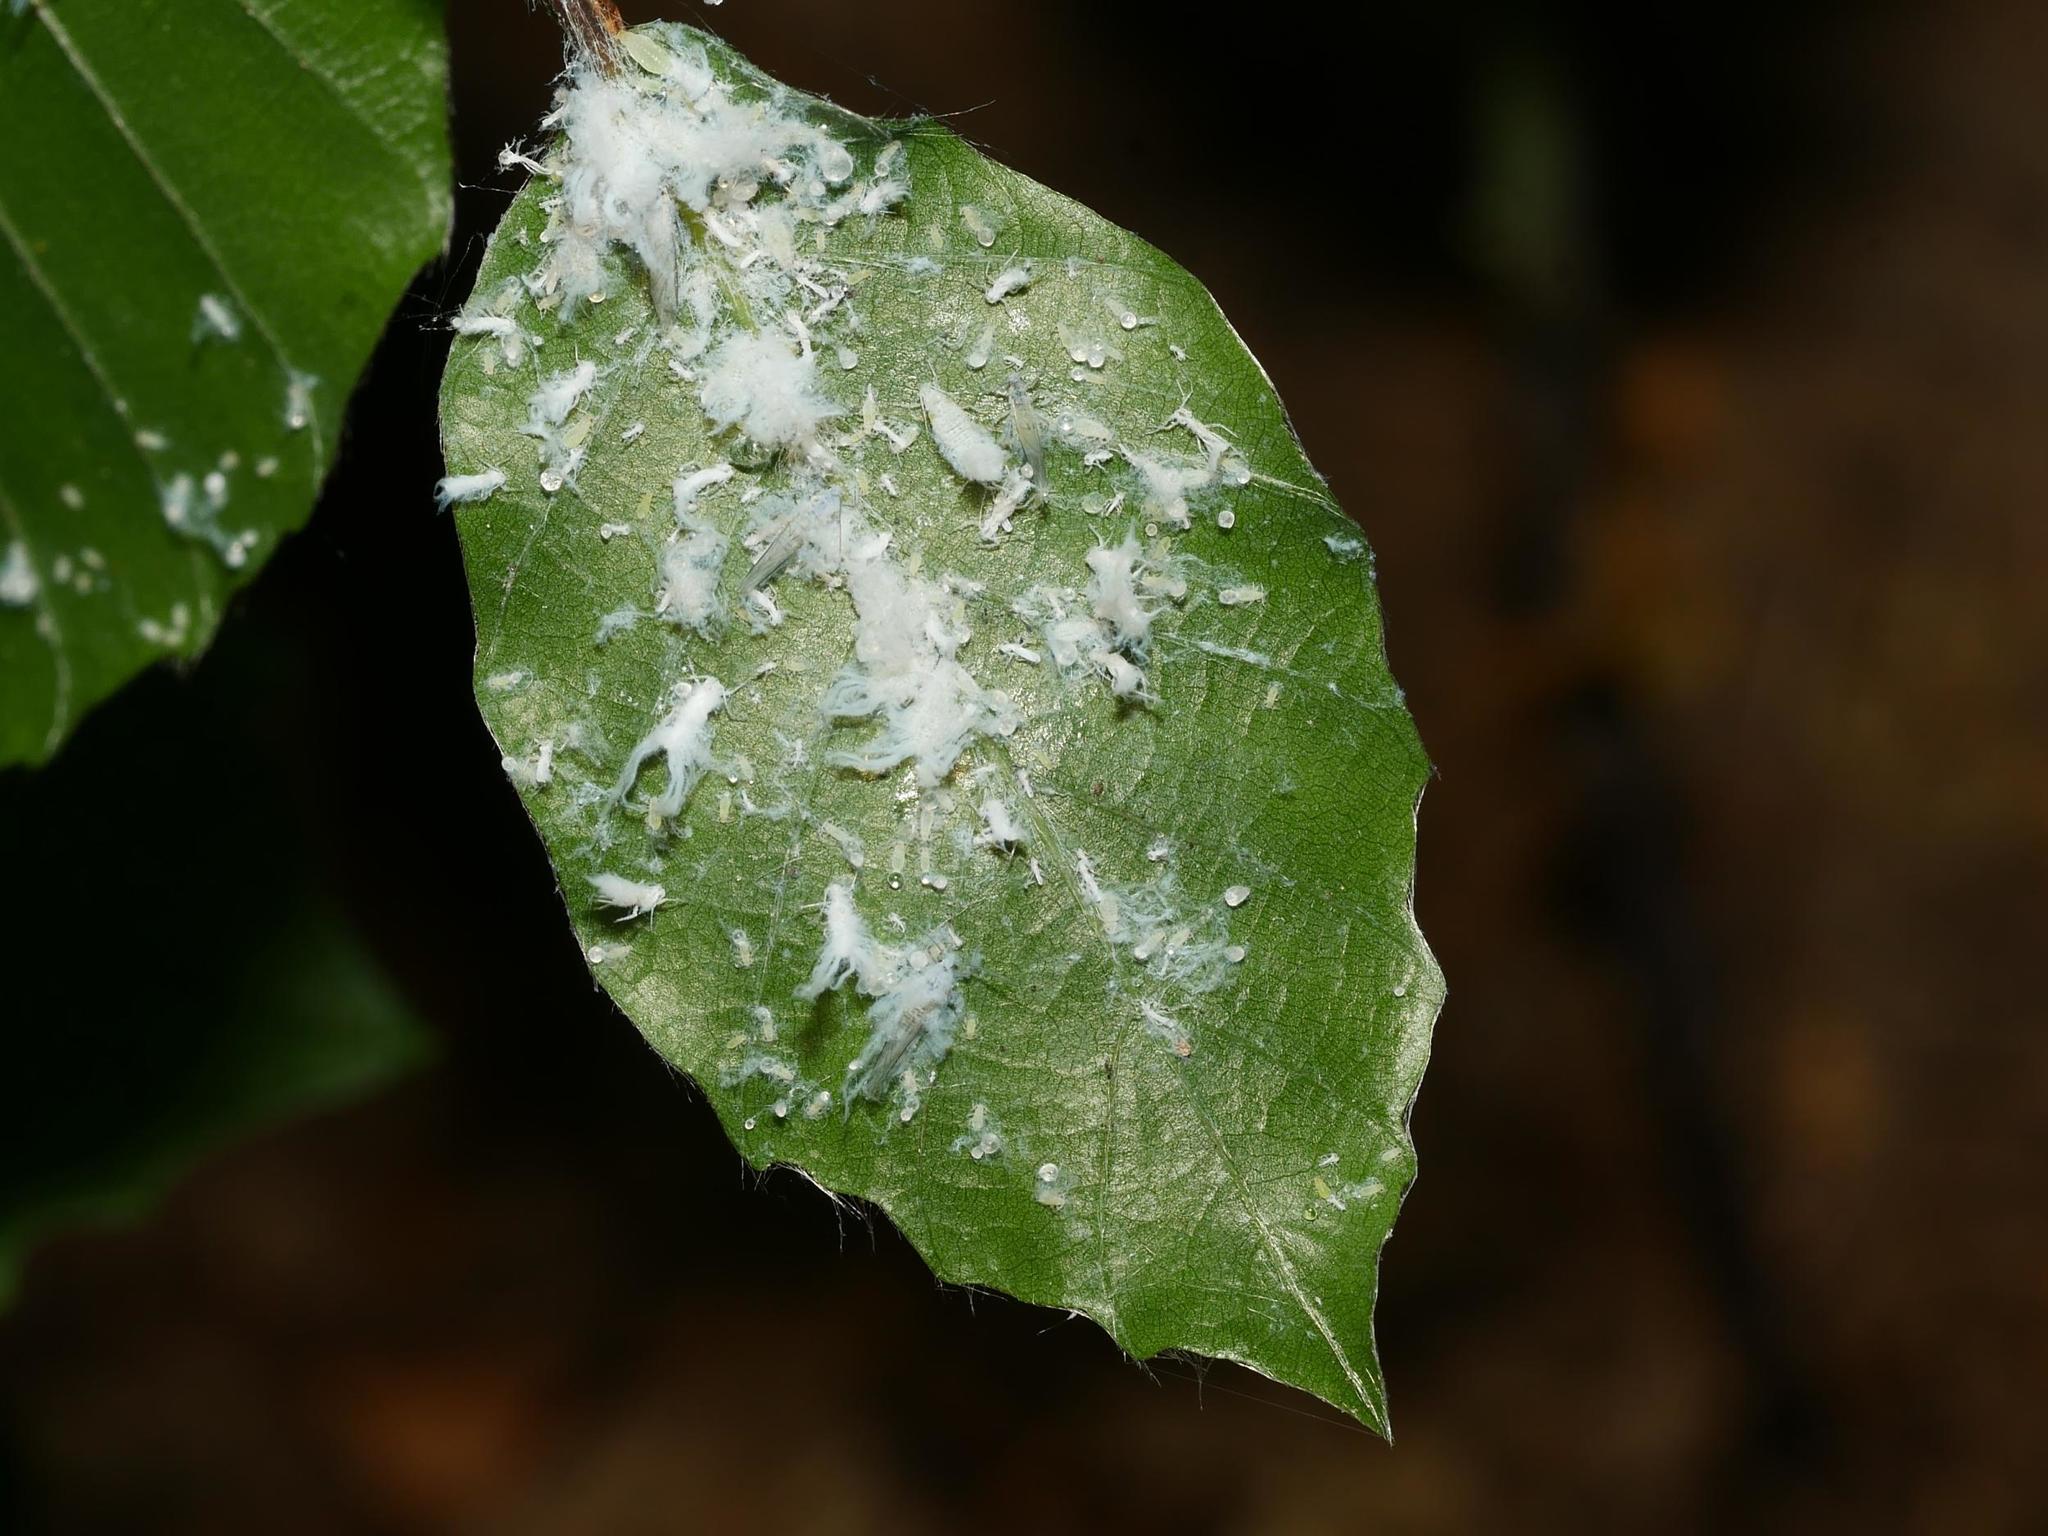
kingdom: Animalia
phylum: Arthropoda
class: Insecta
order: Hemiptera
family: Aphididae
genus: Phyllaphis
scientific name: Phyllaphis fagi
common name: Beech aphid
